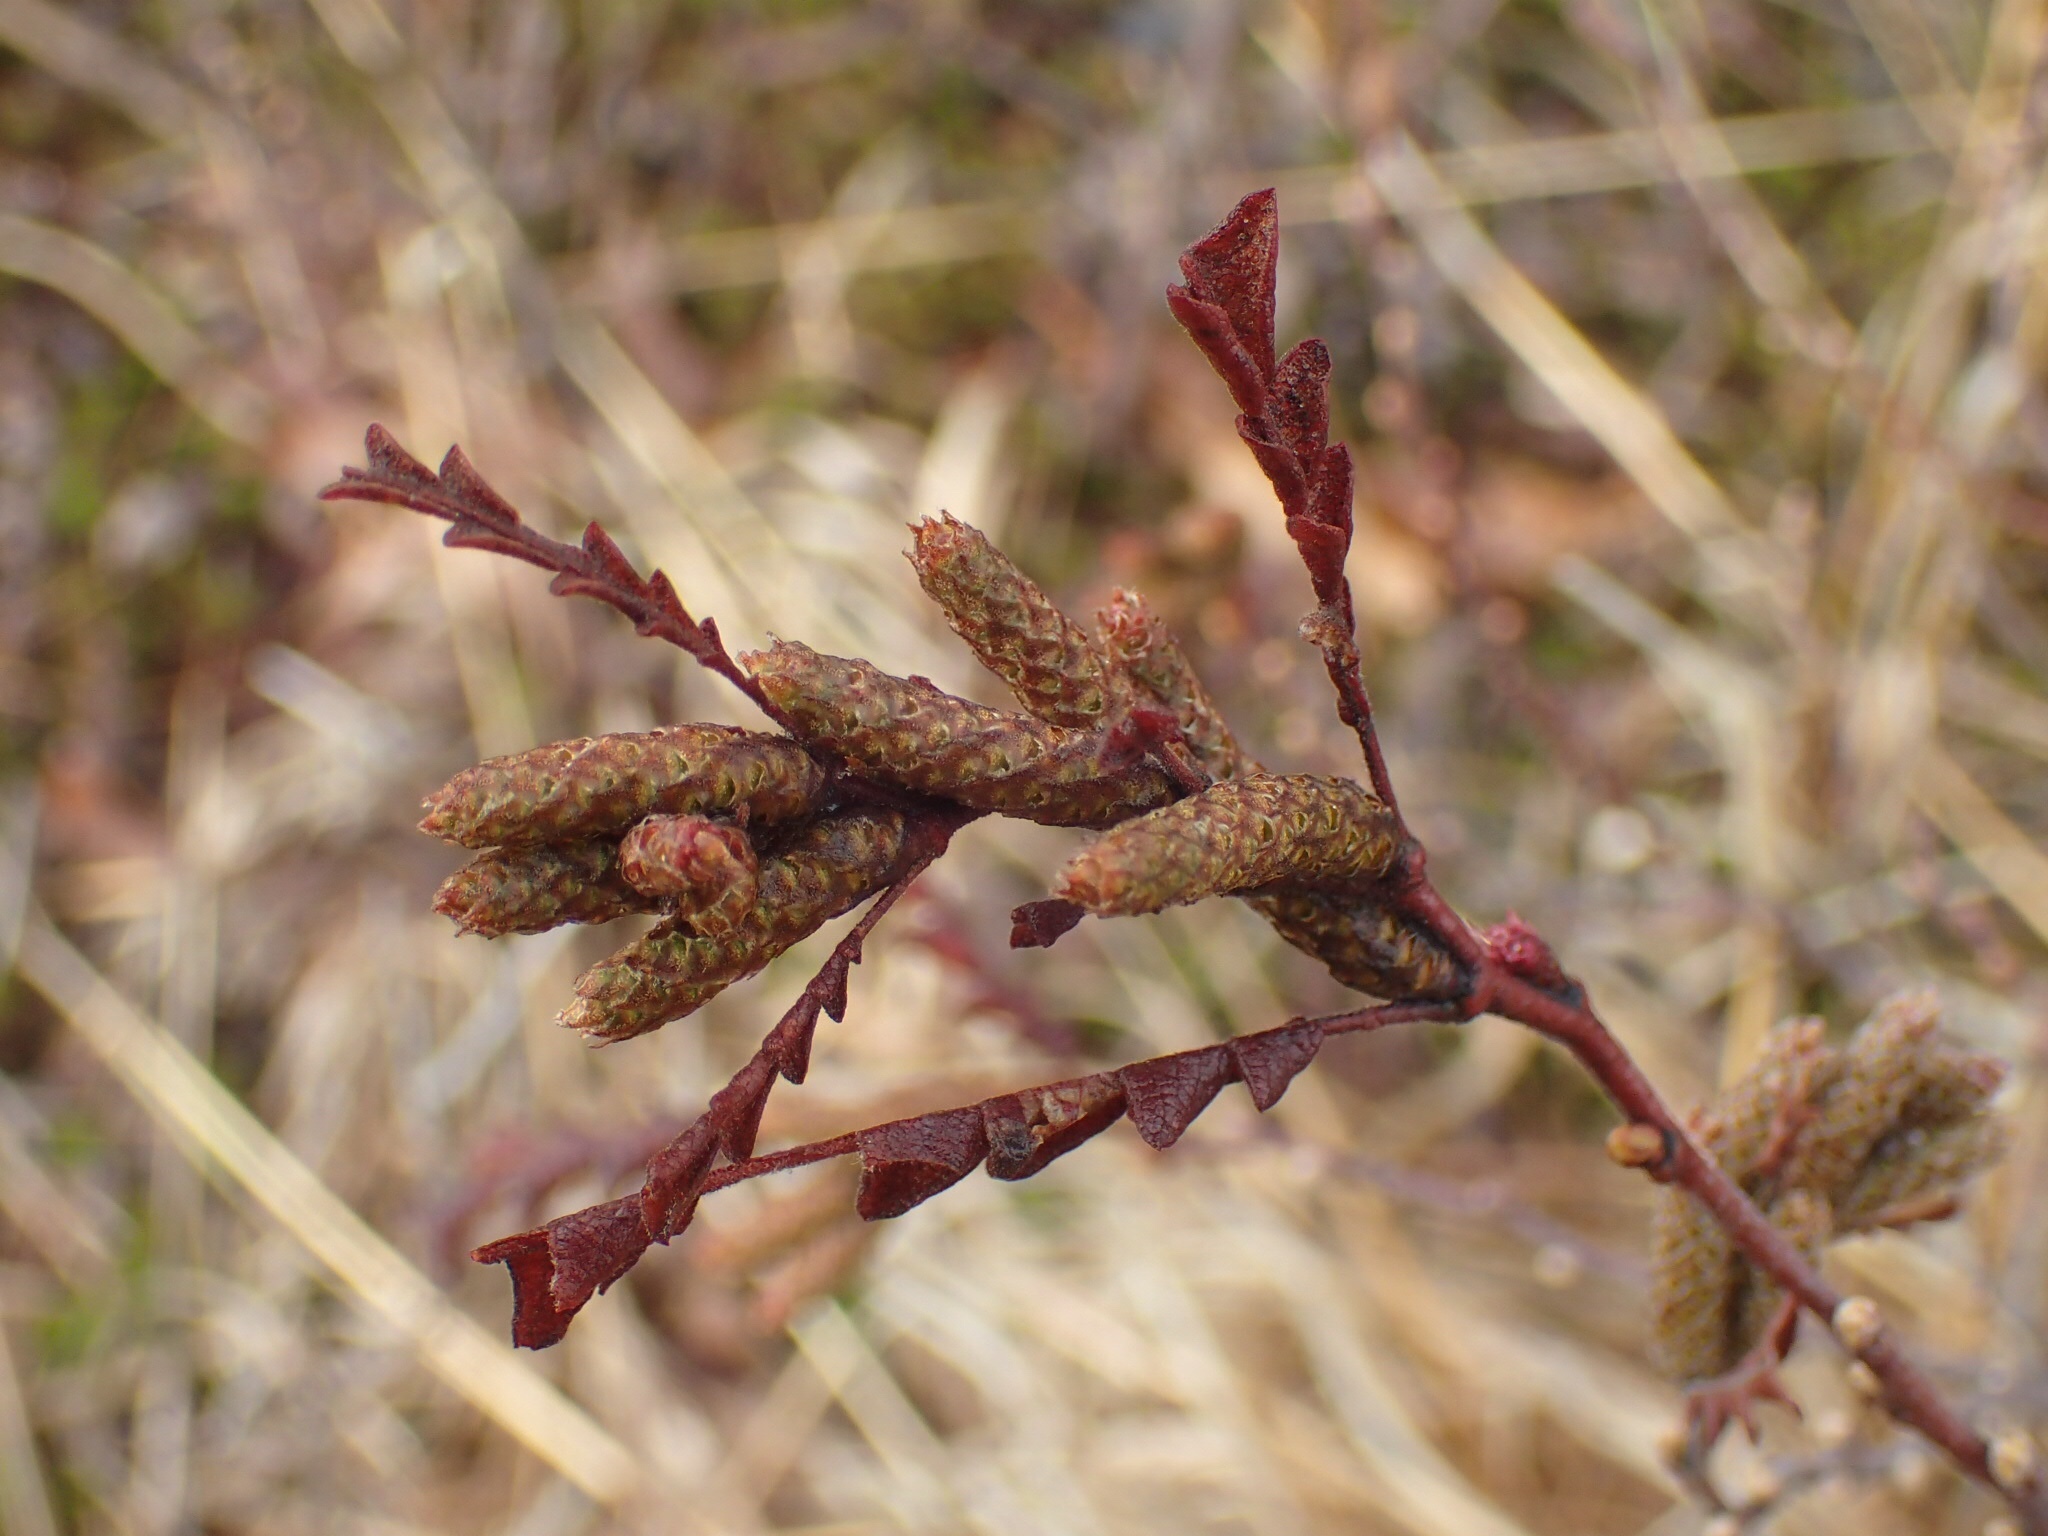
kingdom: Plantae
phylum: Tracheophyta
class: Magnoliopsida
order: Fagales
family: Myricaceae
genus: Comptonia
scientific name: Comptonia peregrina
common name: Sweet-fern
